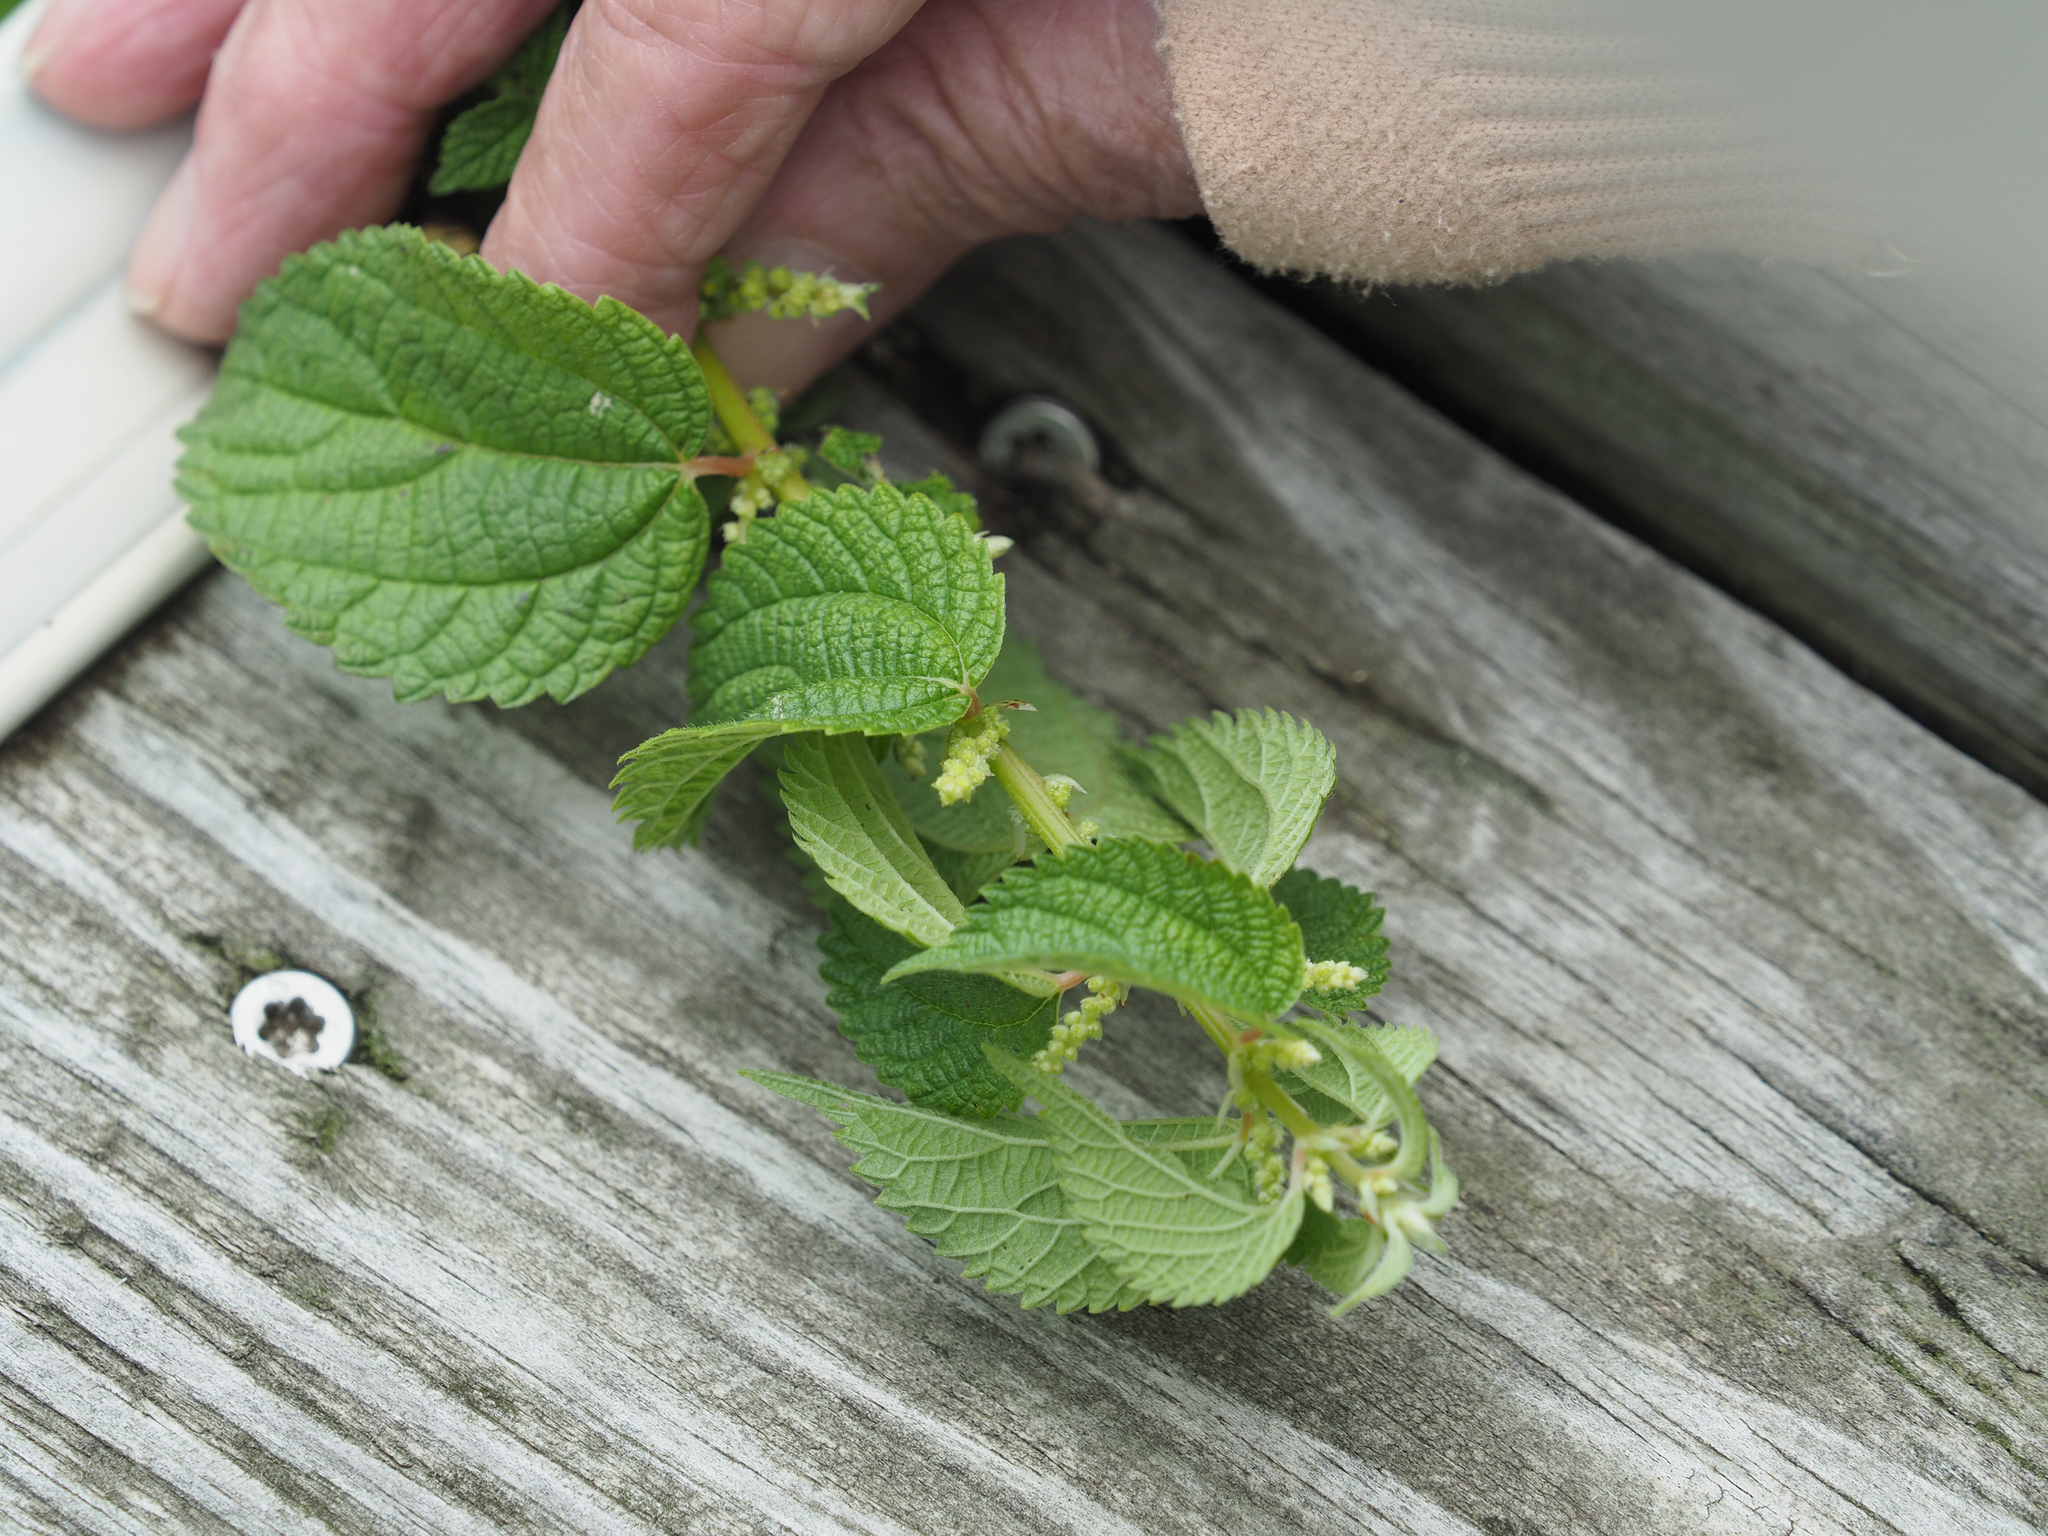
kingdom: Plantae
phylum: Tracheophyta
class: Magnoliopsida
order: Rosales
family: Urticaceae
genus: Boehmeria
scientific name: Boehmeria cylindrica
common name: Bog-hemp
